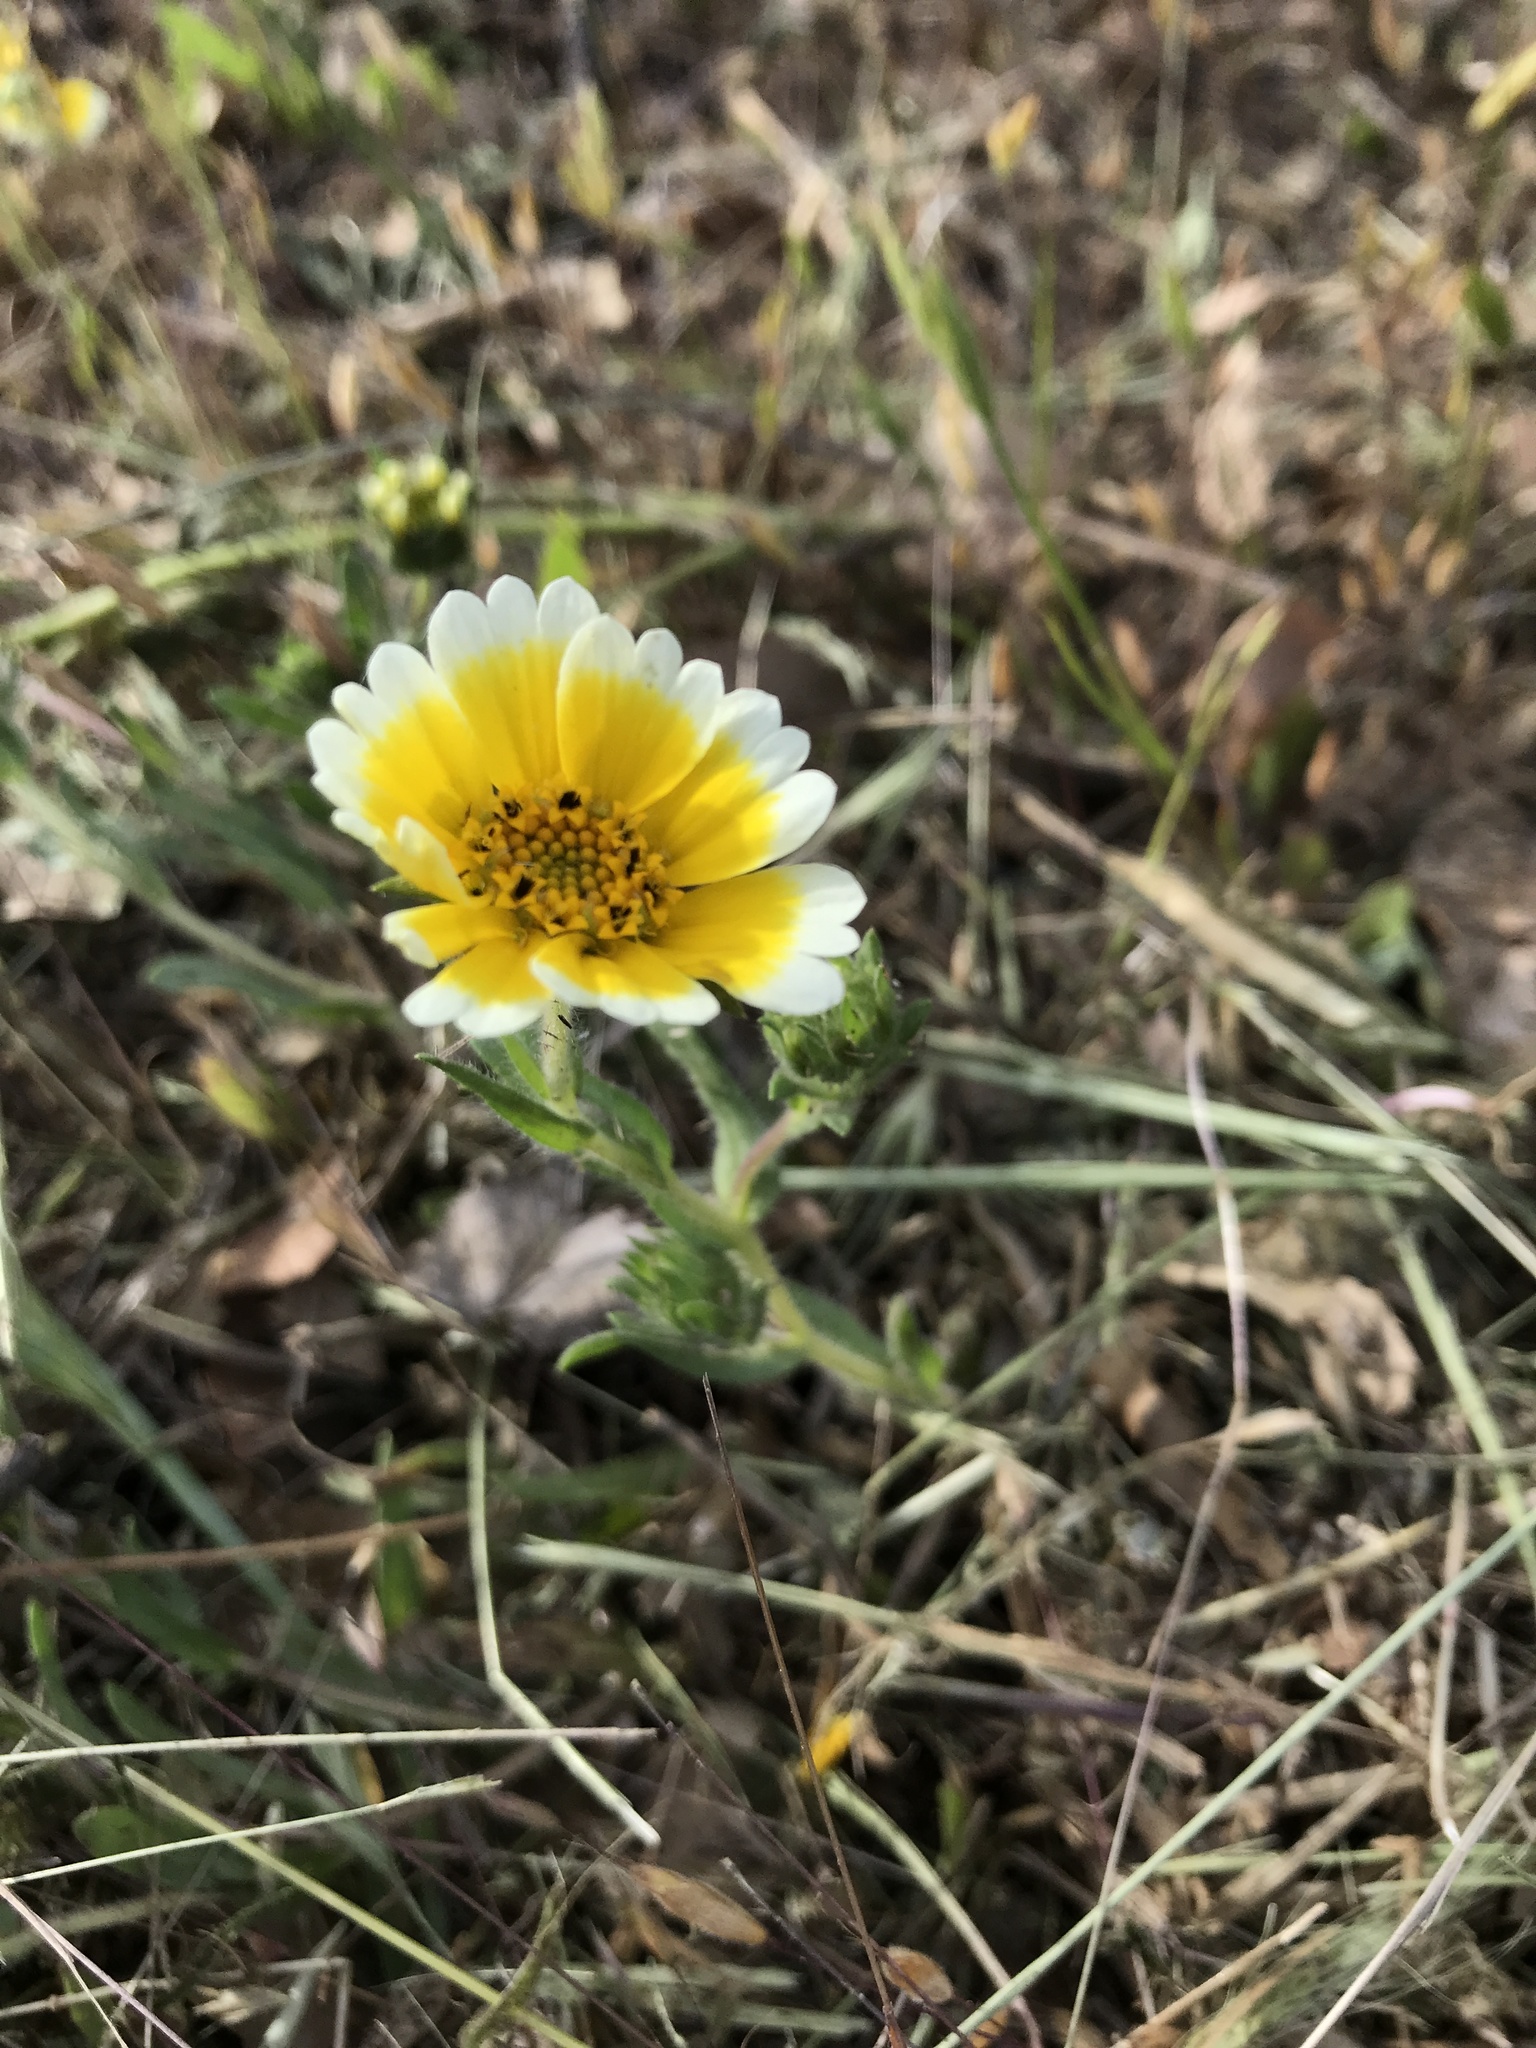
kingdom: Plantae
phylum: Tracheophyta
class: Magnoliopsida
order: Asterales
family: Asteraceae
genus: Layia
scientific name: Layia platyglossa
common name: Tidy-tips
